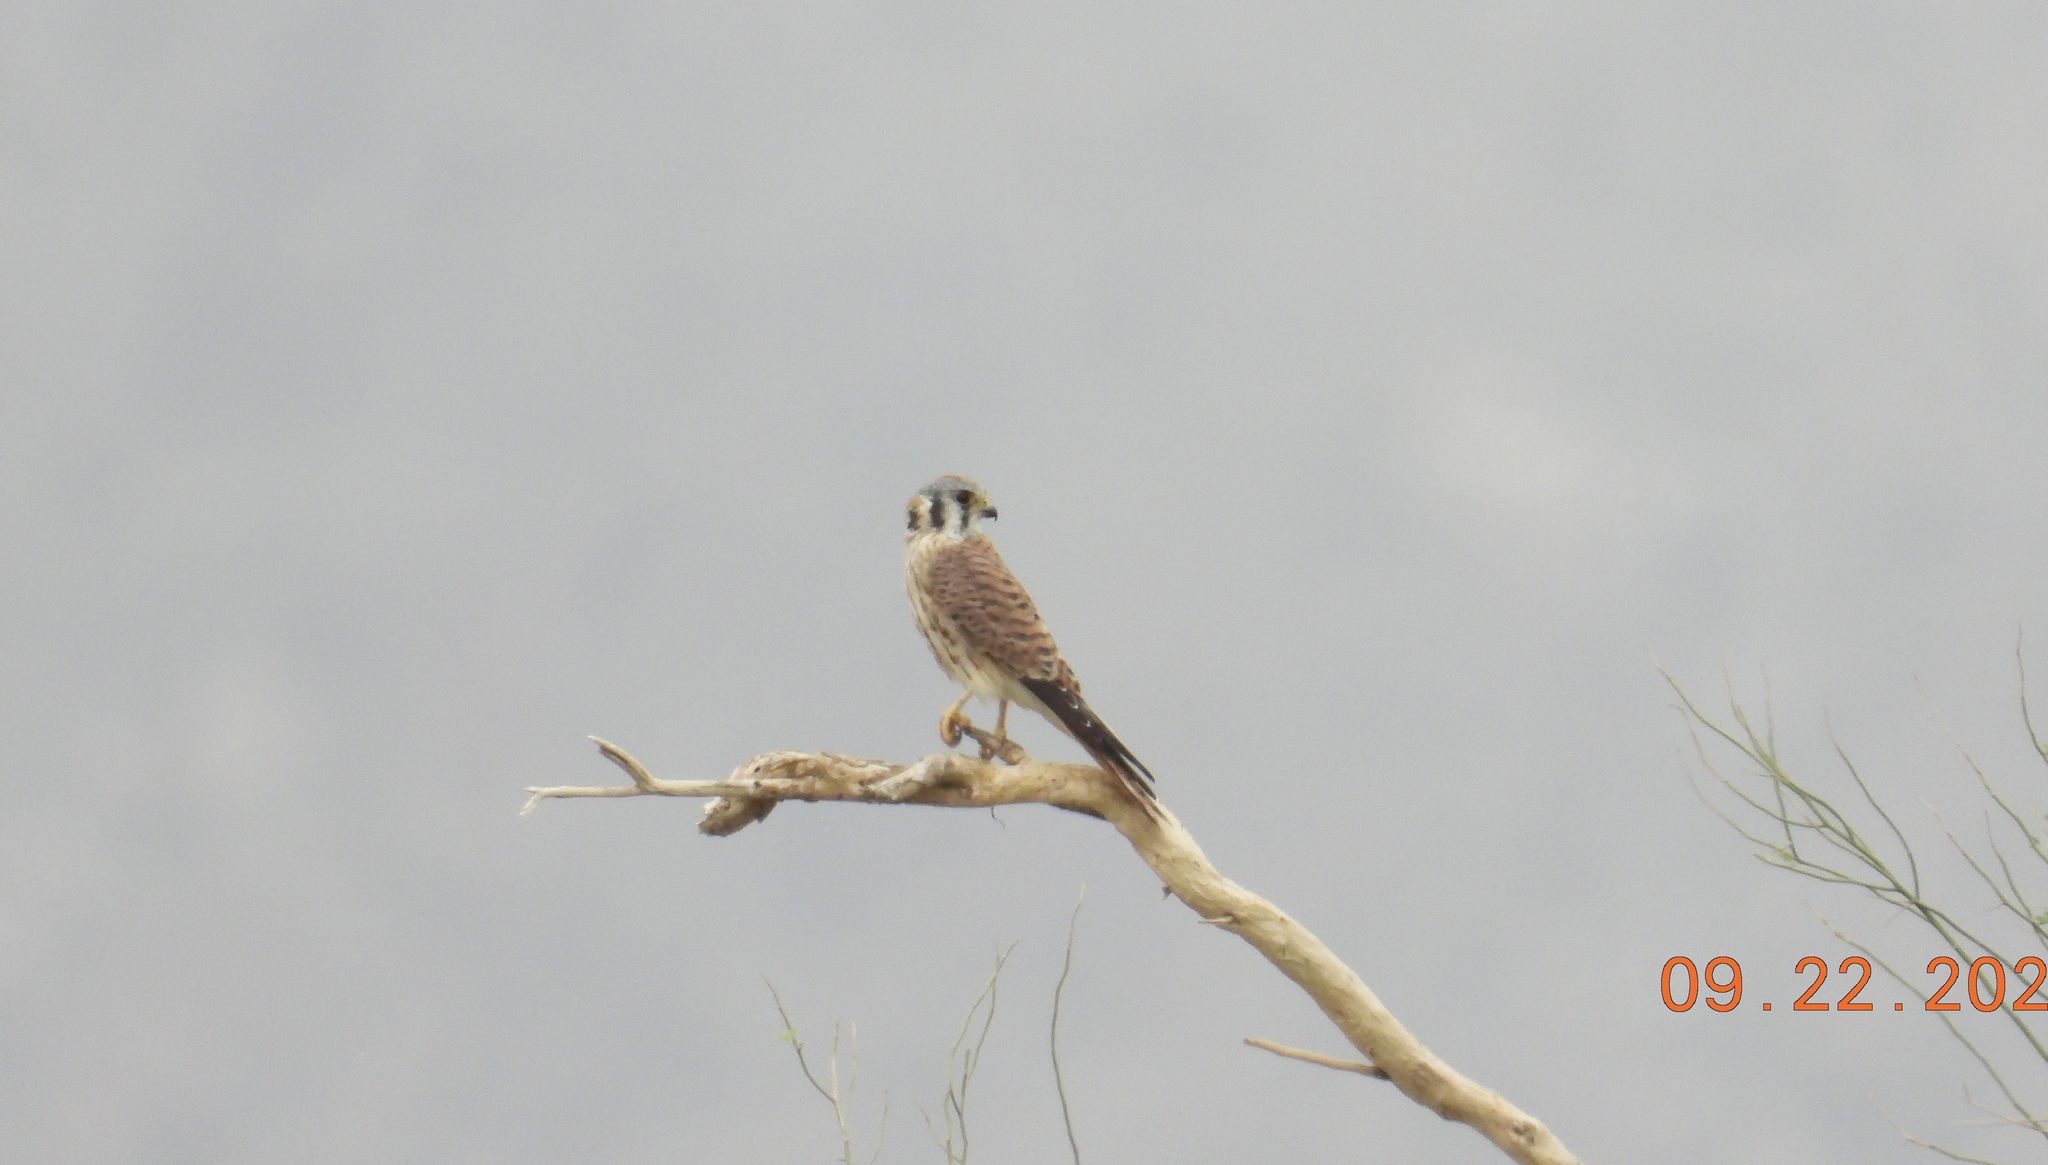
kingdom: Animalia
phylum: Chordata
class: Aves
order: Falconiformes
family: Falconidae
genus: Falco
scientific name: Falco sparverius
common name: American kestrel
